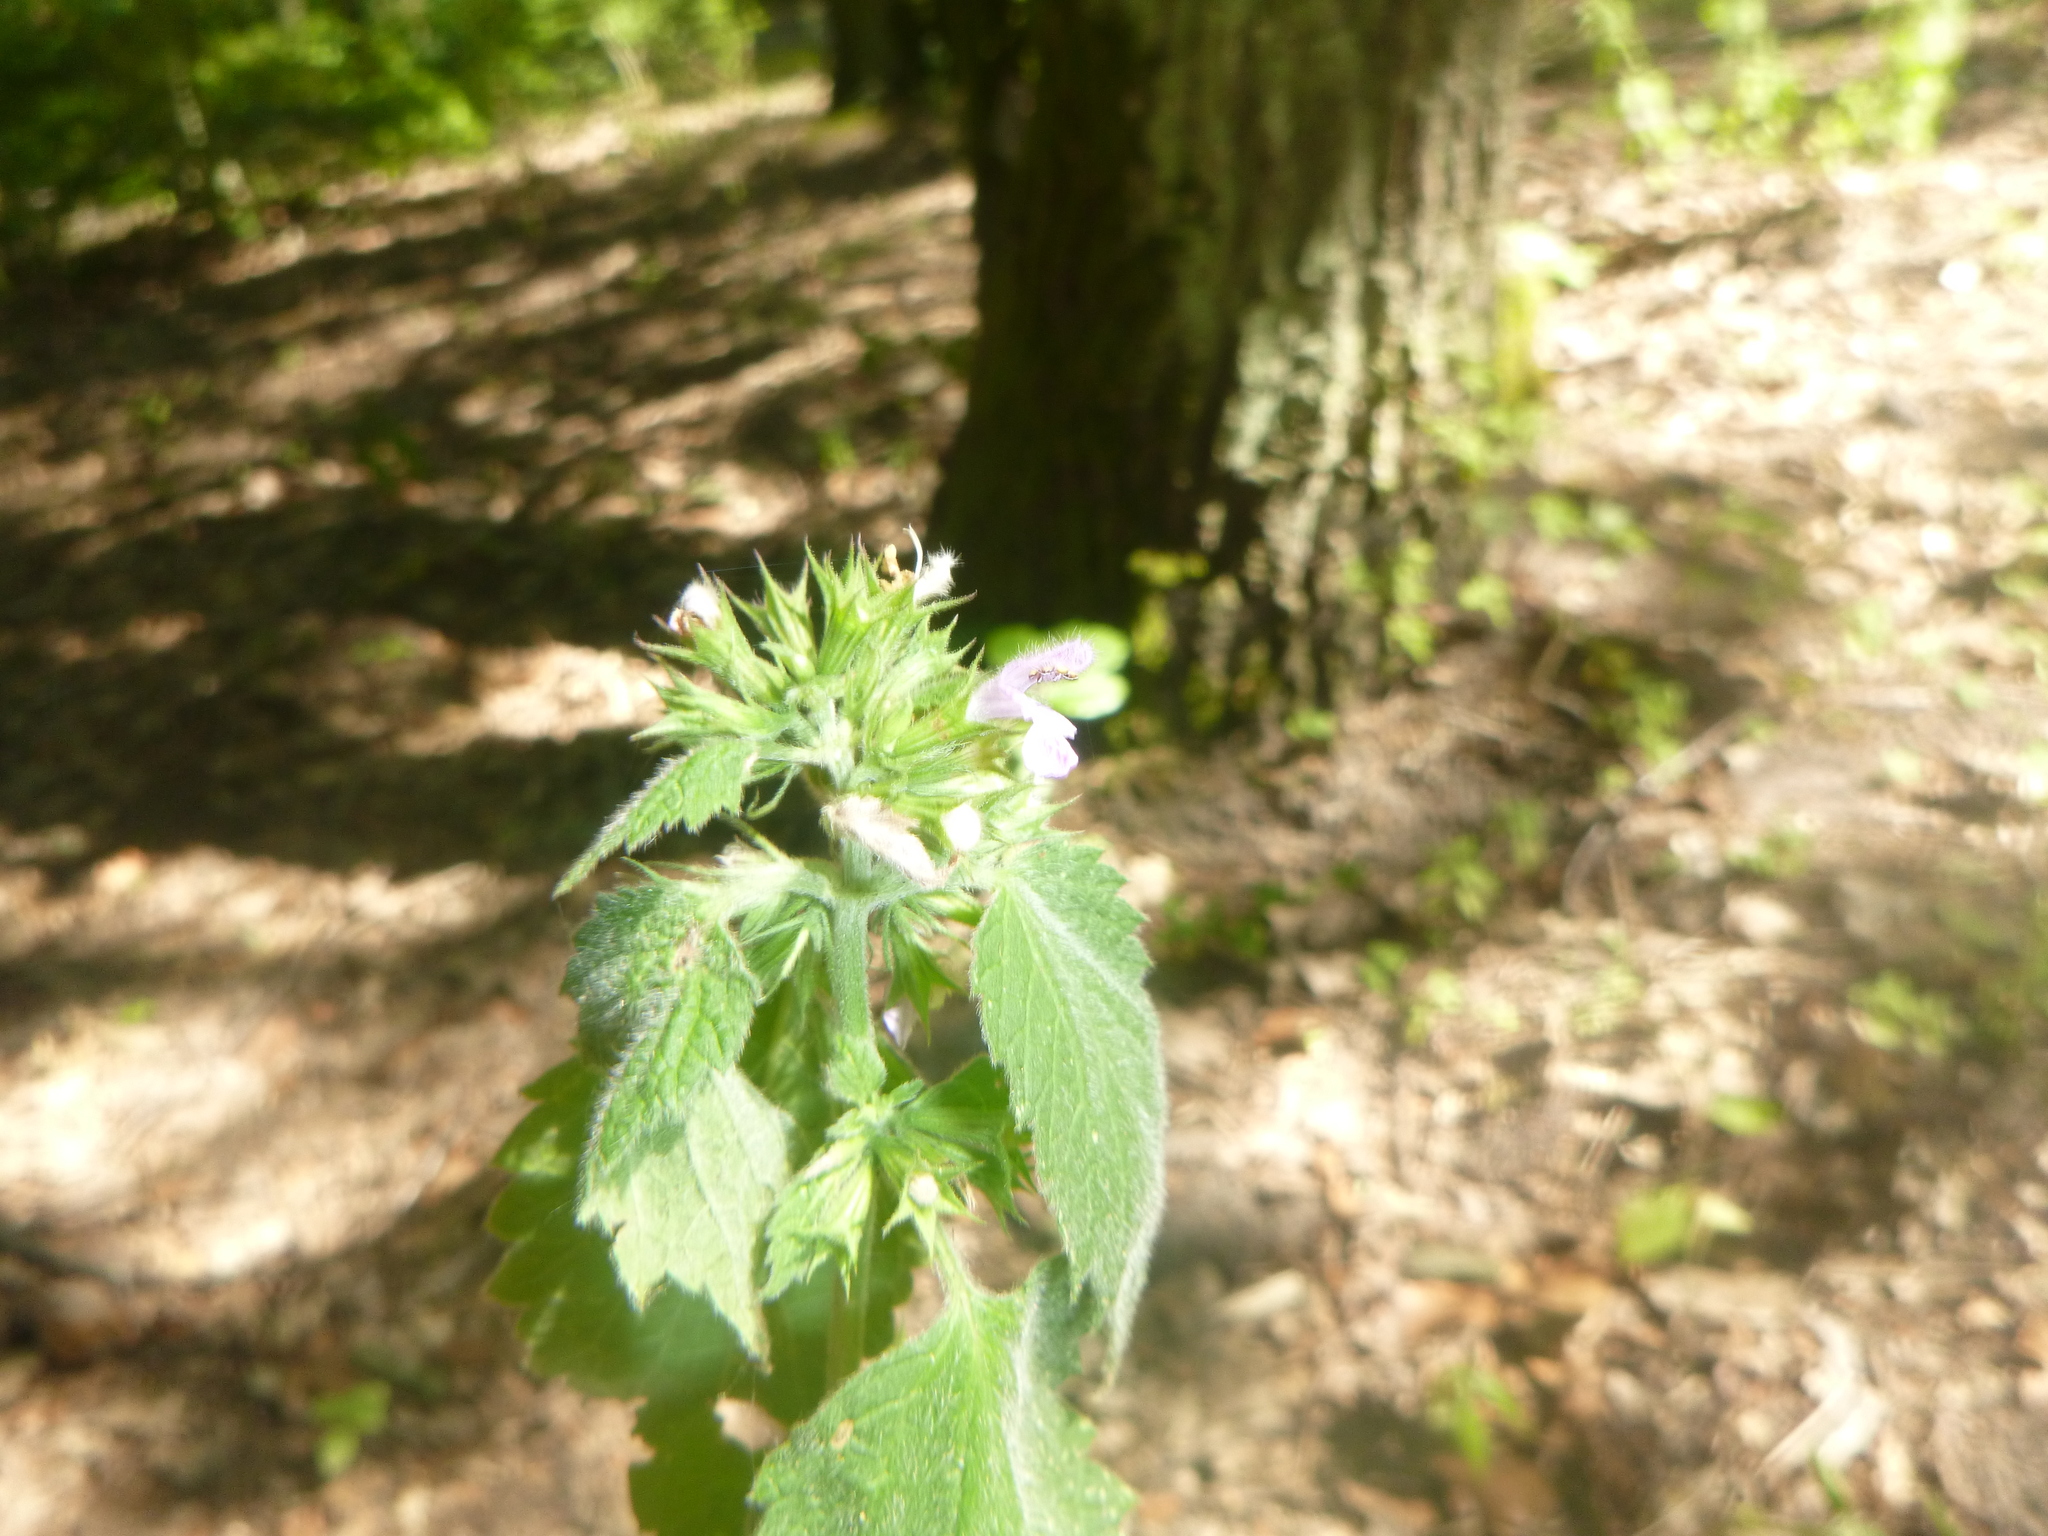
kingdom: Plantae
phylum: Tracheophyta
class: Magnoliopsida
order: Lamiales
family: Lamiaceae
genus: Ballota
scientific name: Ballota nigra
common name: Black horehound
